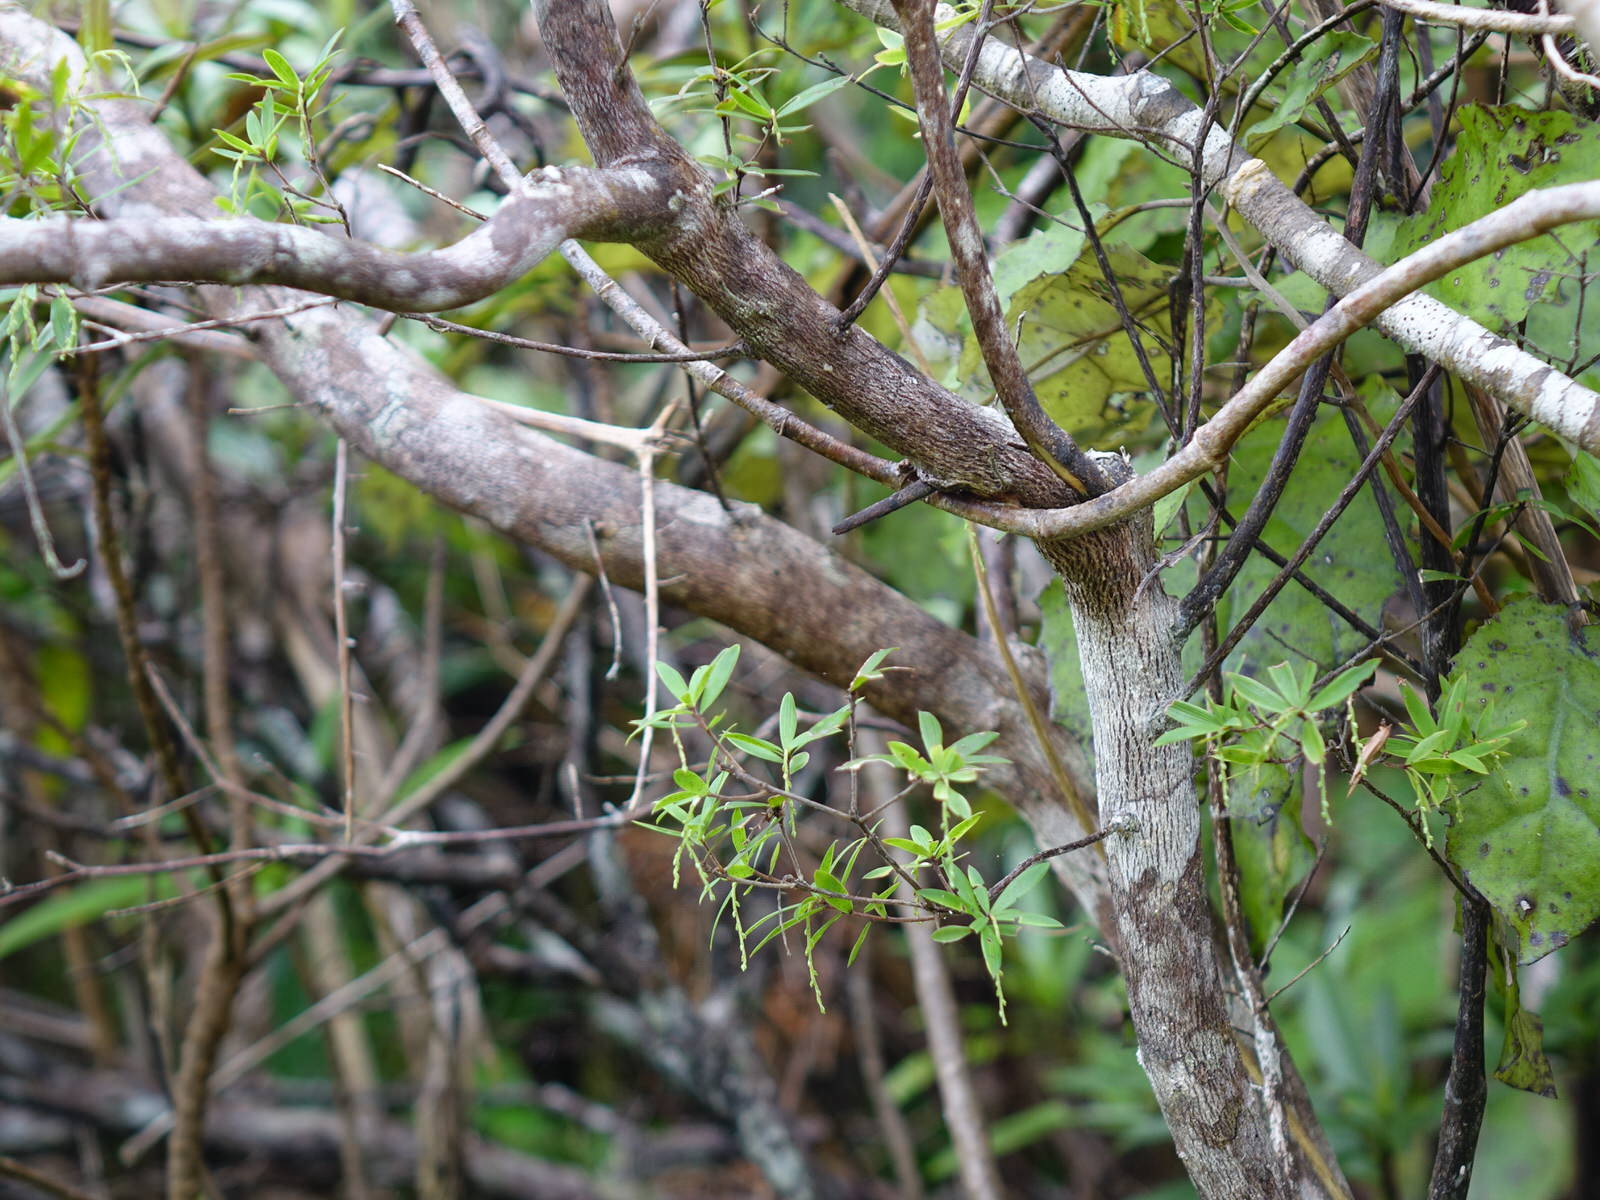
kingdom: Plantae
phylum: Tracheophyta
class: Magnoliopsida
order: Ericales
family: Ericaceae
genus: Leucopogon
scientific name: Leucopogon fasciculatus
